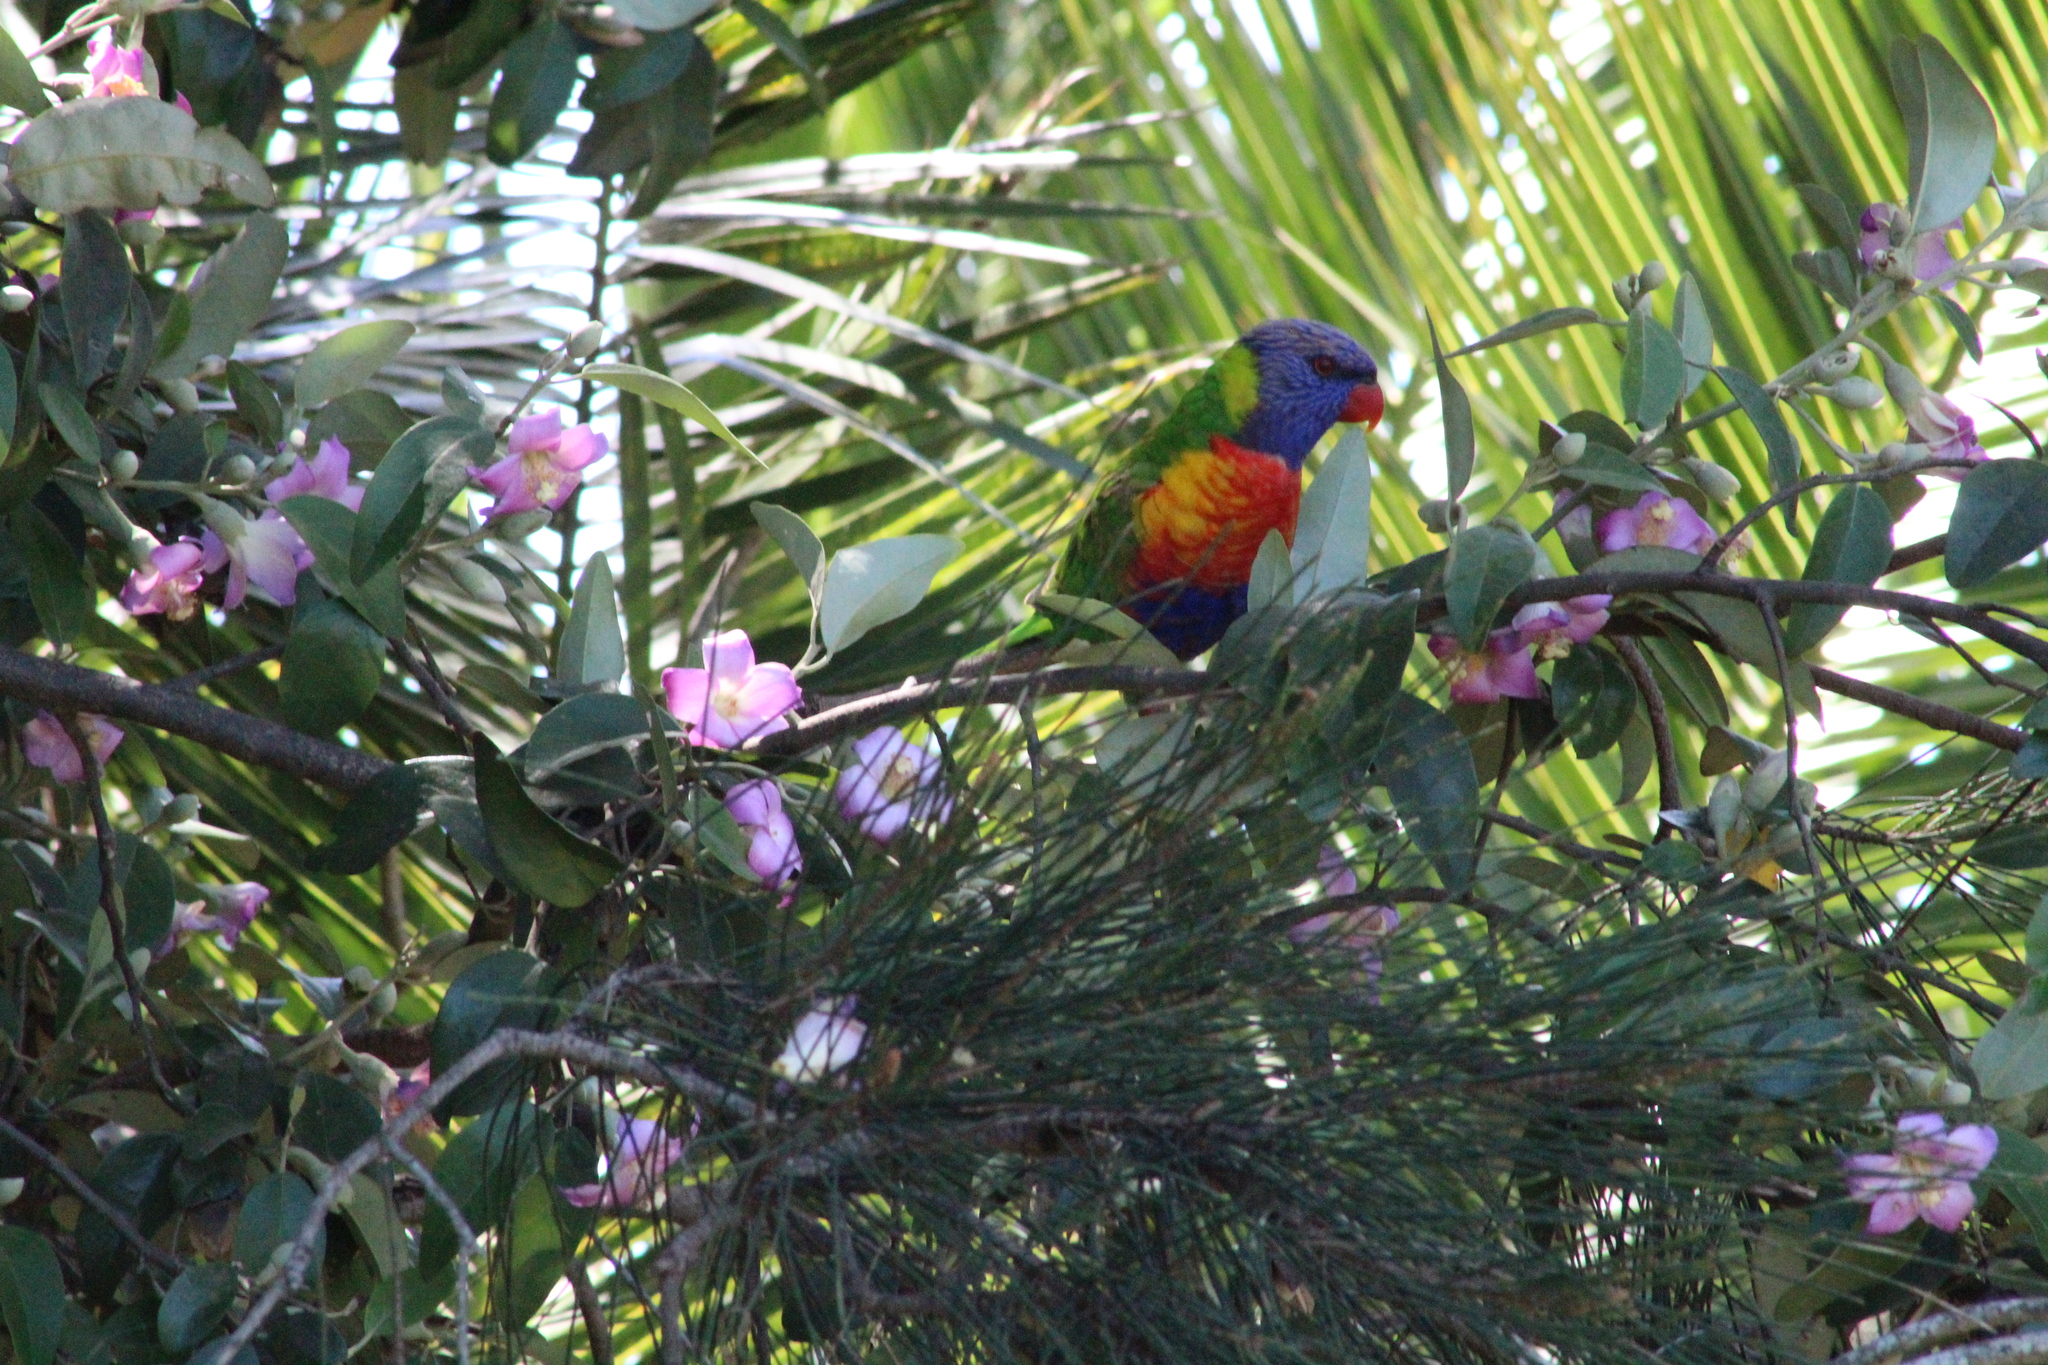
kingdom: Animalia
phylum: Chordata
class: Aves
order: Psittaciformes
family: Psittacidae
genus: Trichoglossus
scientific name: Trichoglossus haematodus
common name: Coconut lorikeet
